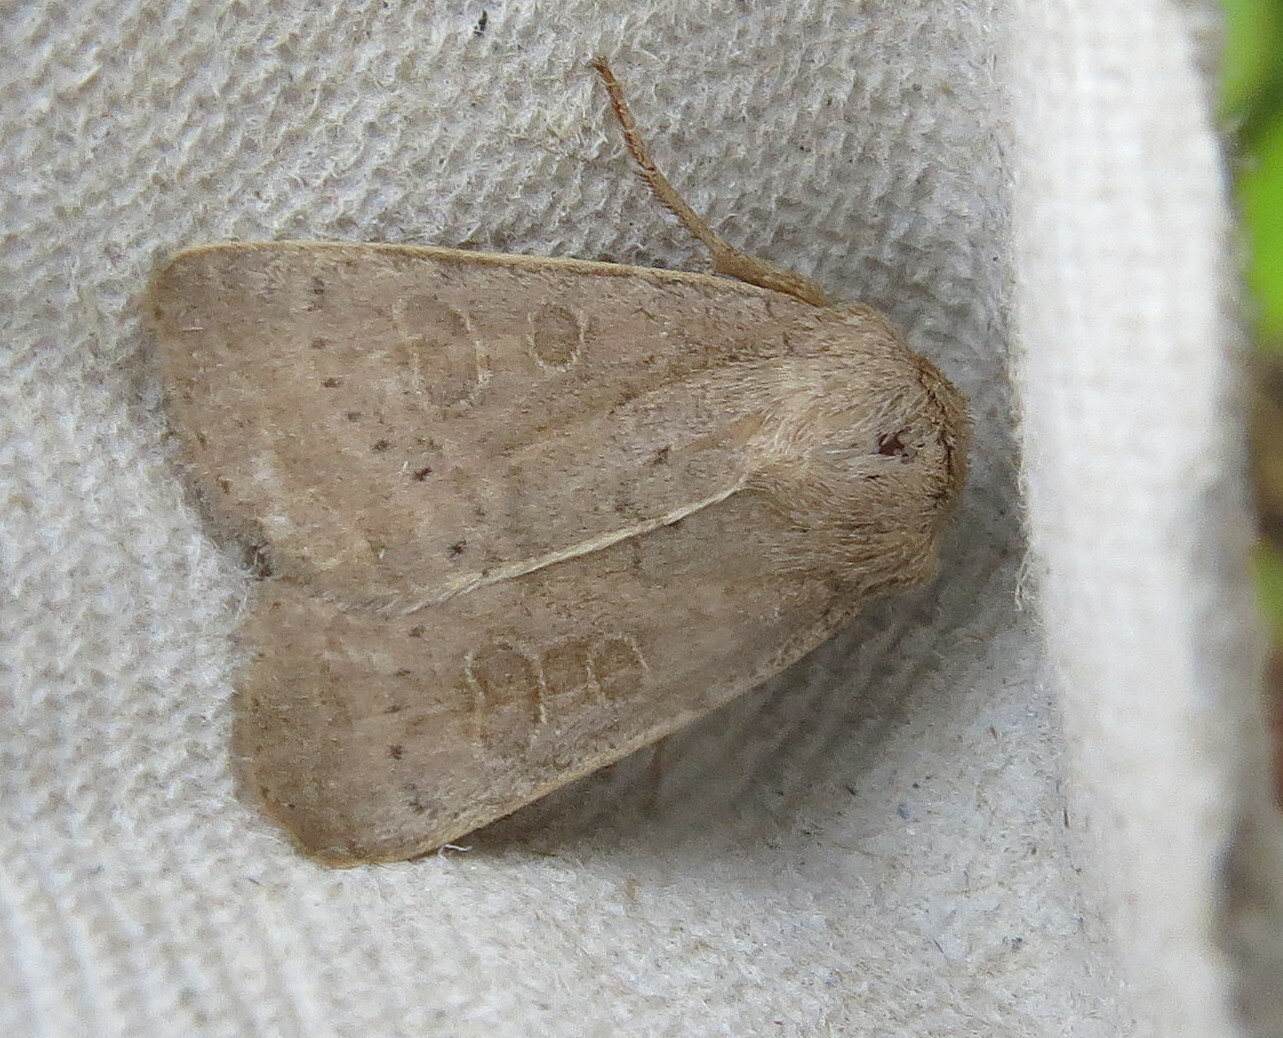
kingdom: Animalia
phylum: Arthropoda
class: Insecta
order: Lepidoptera
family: Noctuidae
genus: Hoplodrina
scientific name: Hoplodrina ambigua
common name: Vine's rustic
